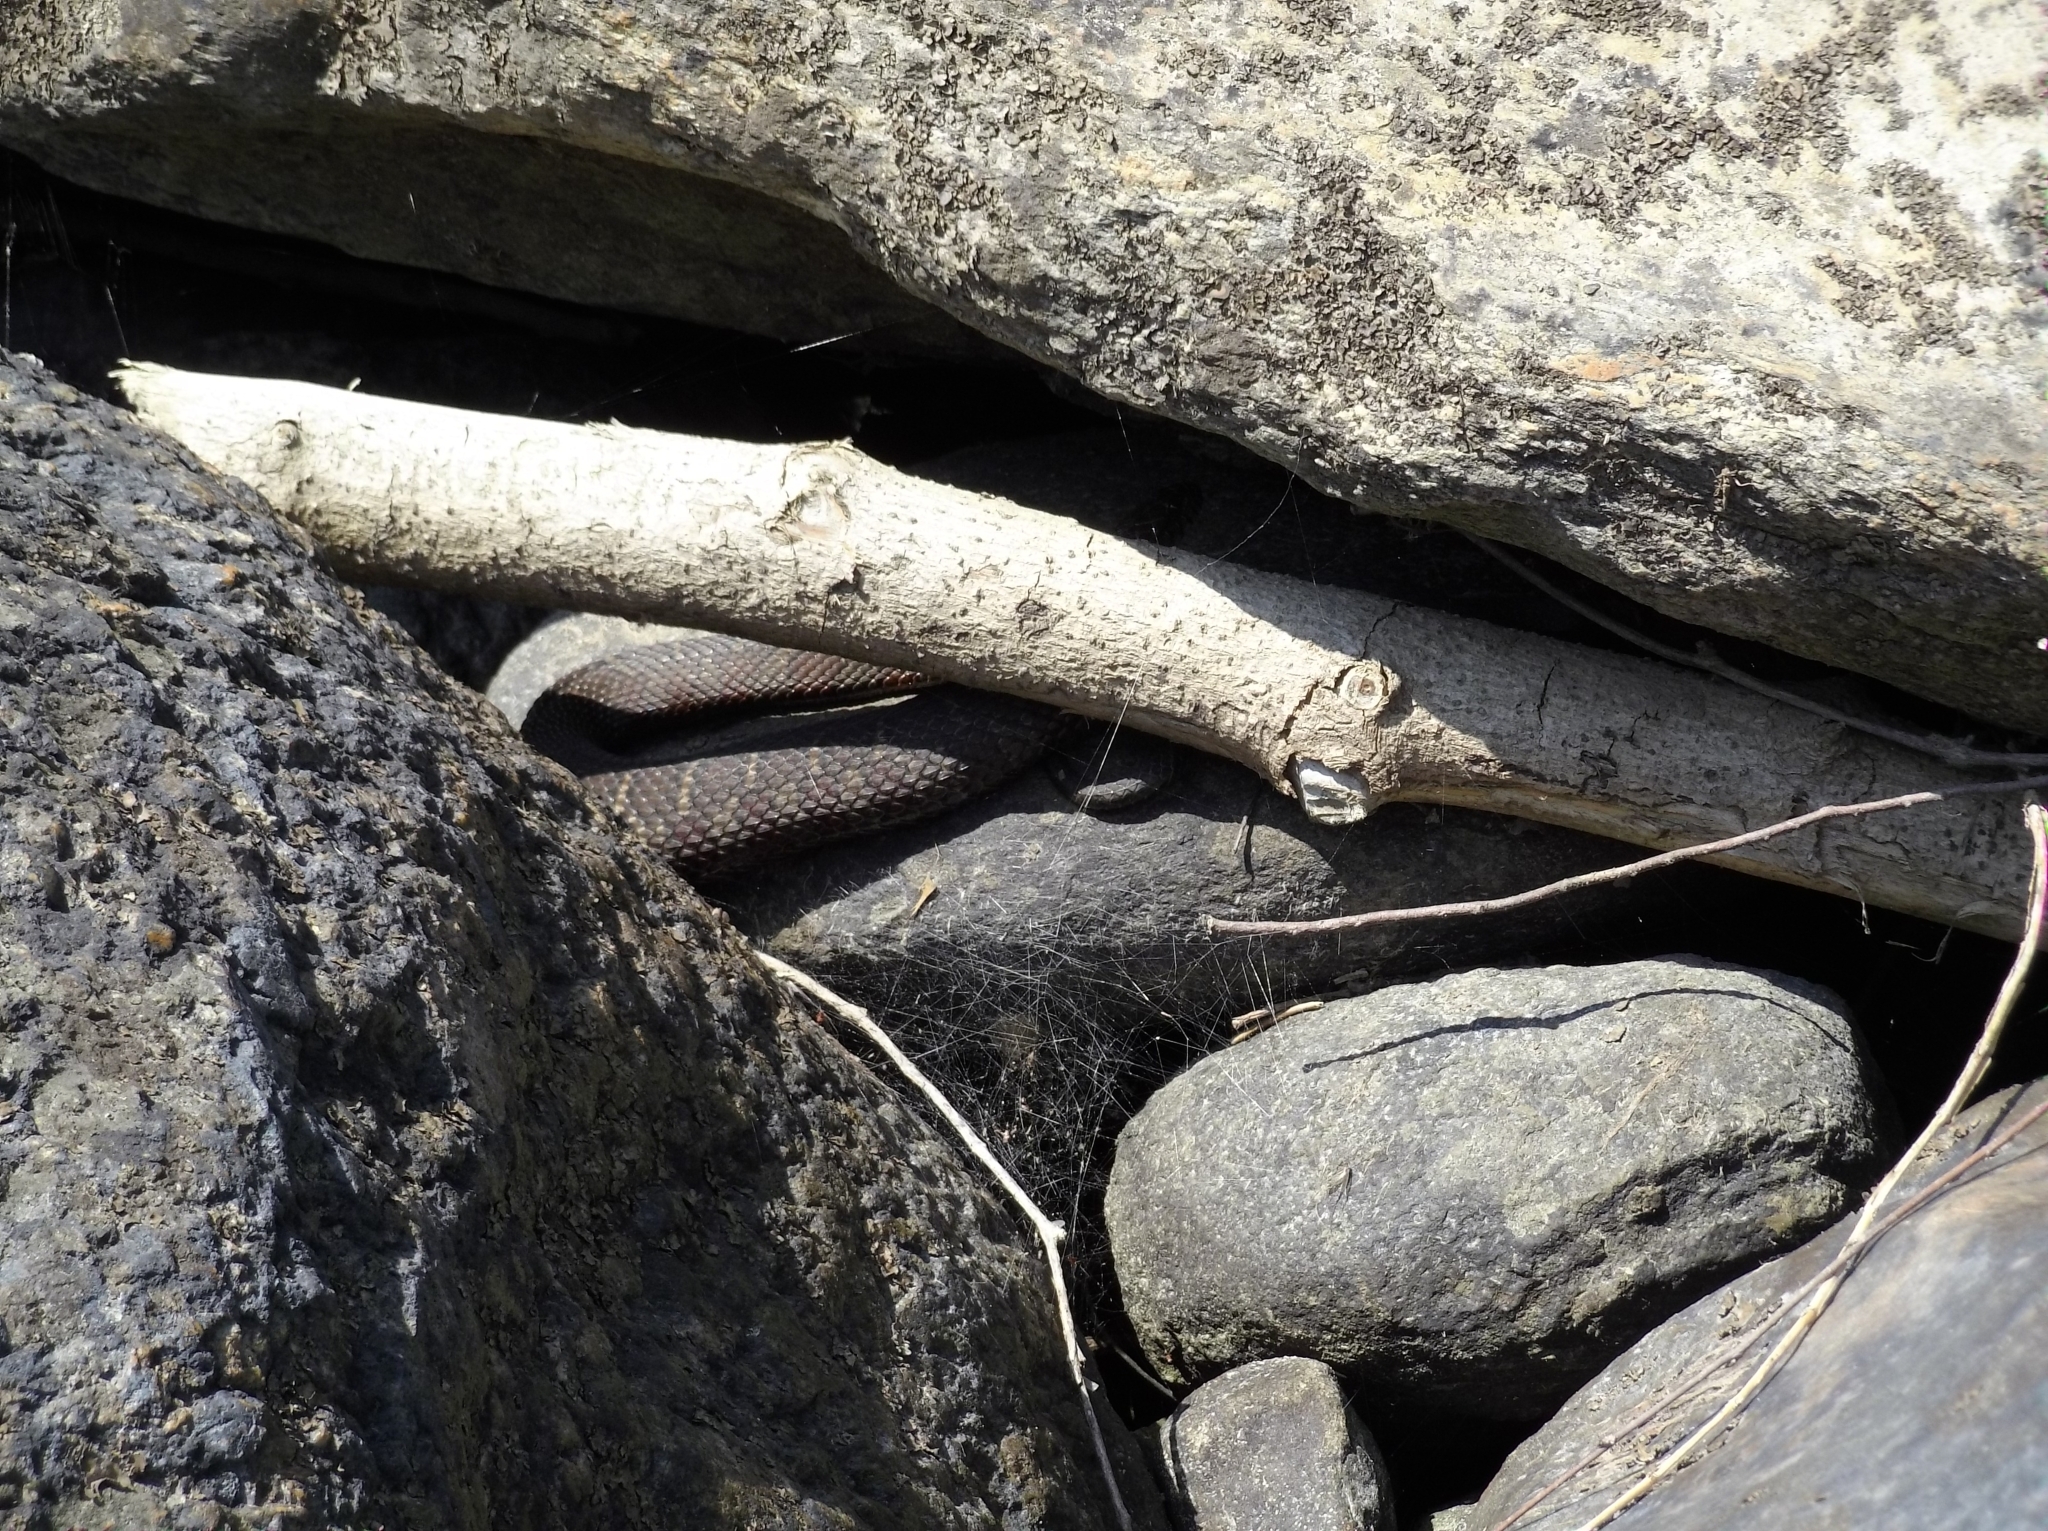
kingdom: Animalia
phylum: Chordata
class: Squamata
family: Colubridae
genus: Nerodia
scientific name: Nerodia sipedon
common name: Northern water snake
